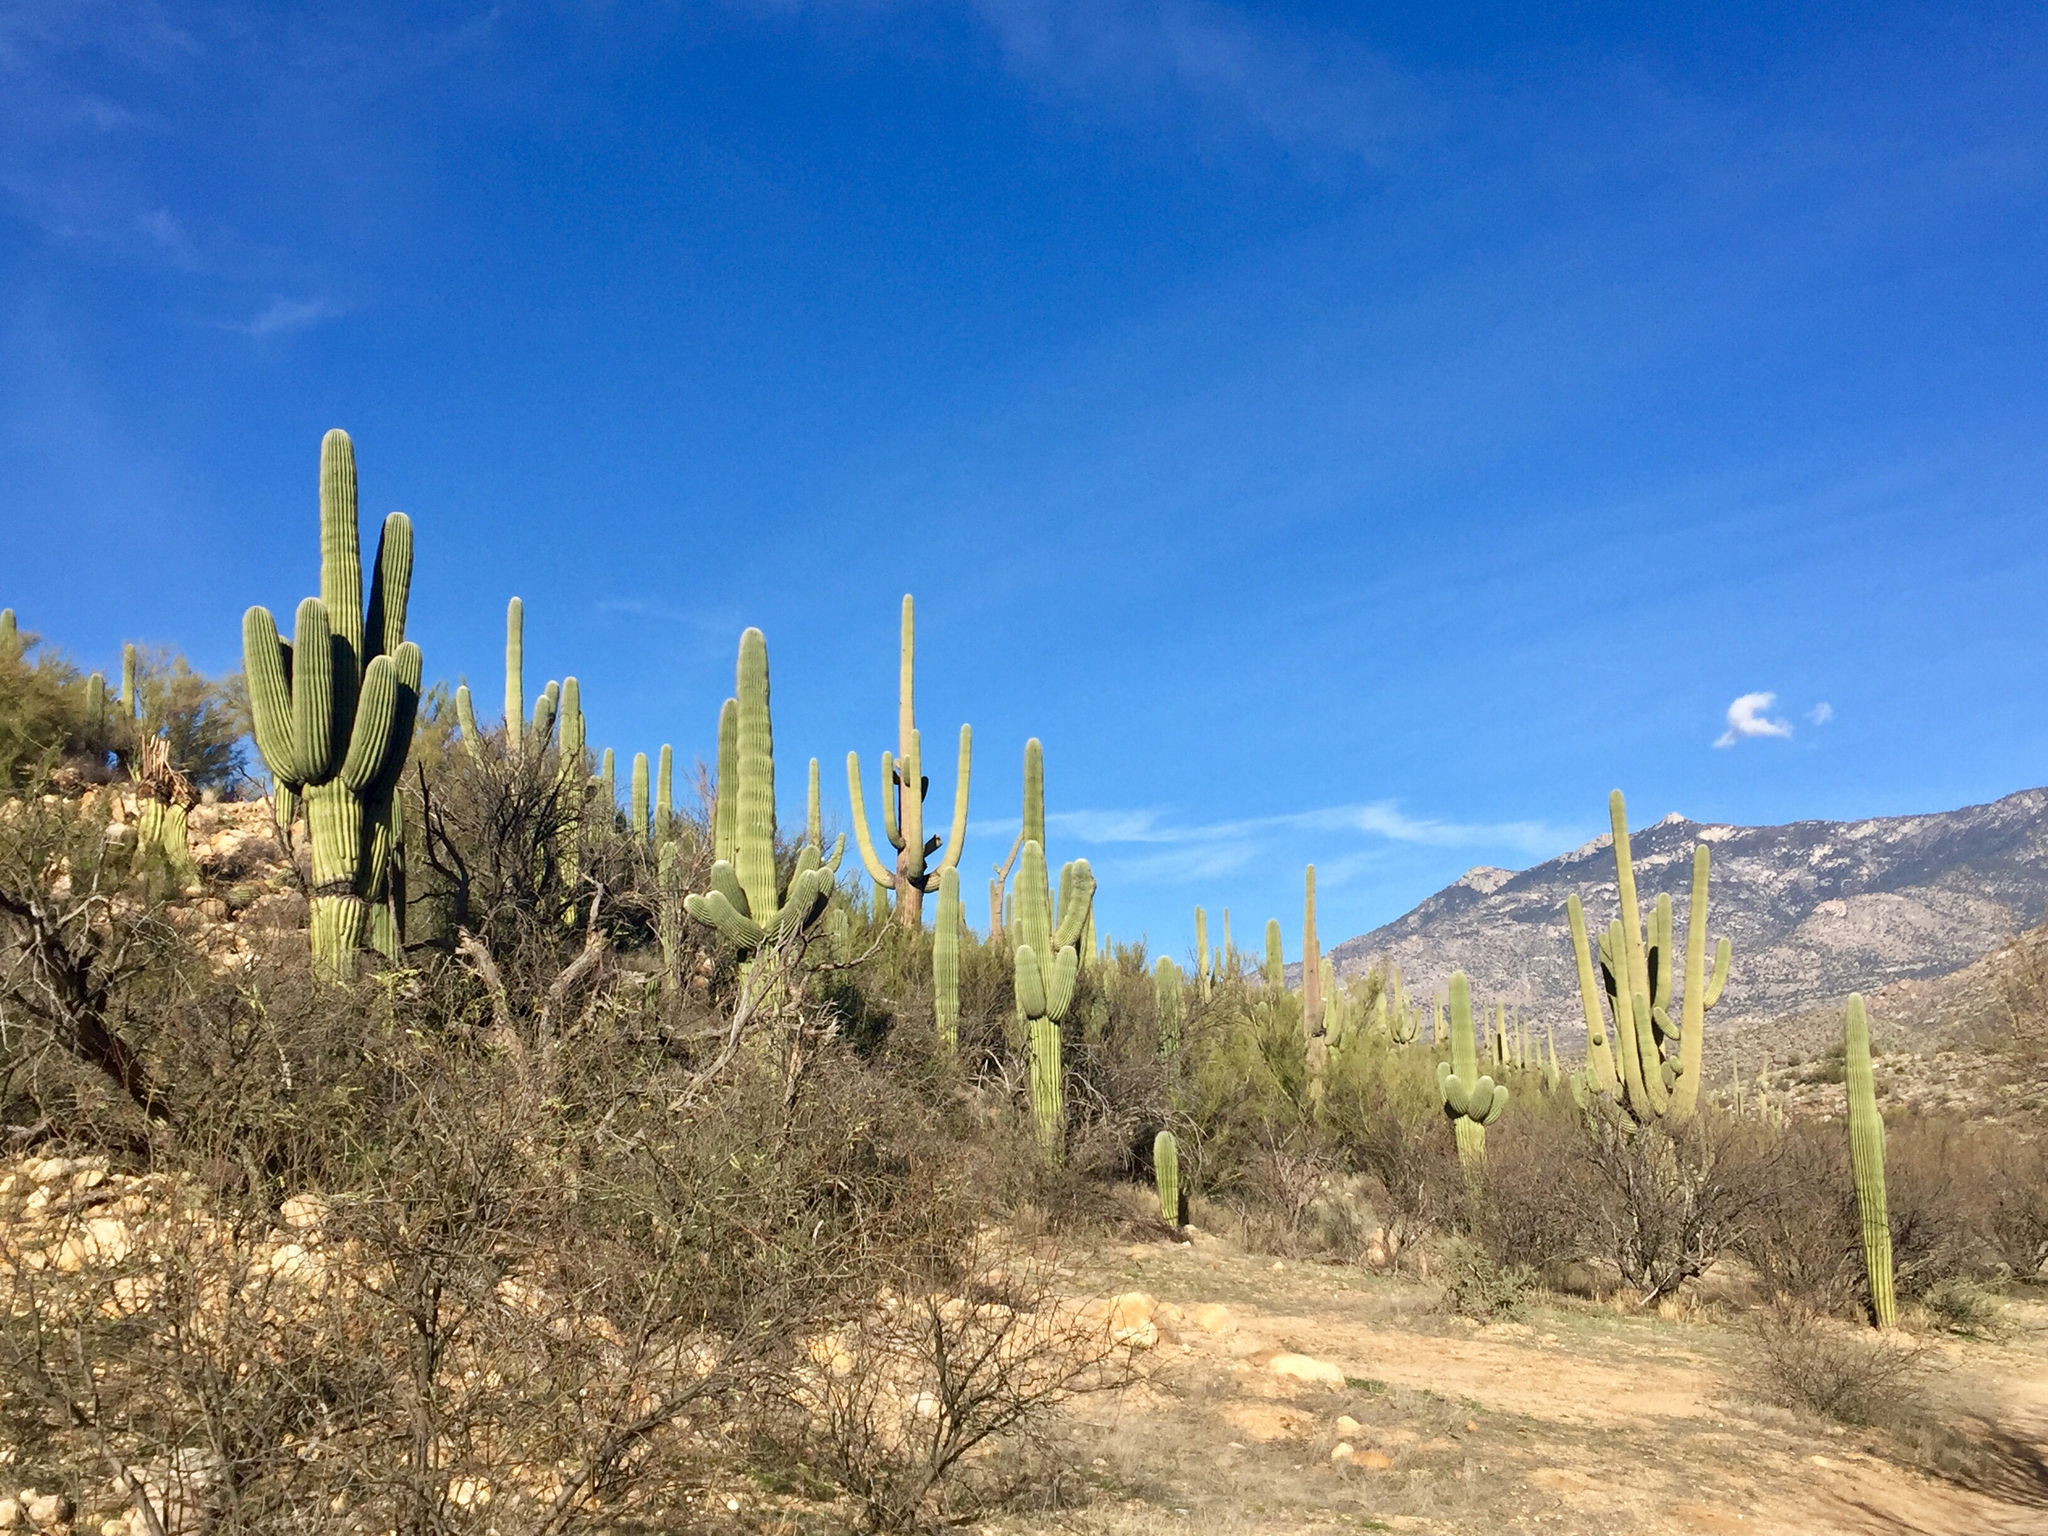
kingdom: Plantae
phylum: Tracheophyta
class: Magnoliopsida
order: Caryophyllales
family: Cactaceae
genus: Carnegiea
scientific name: Carnegiea gigantea
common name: Saguaro
